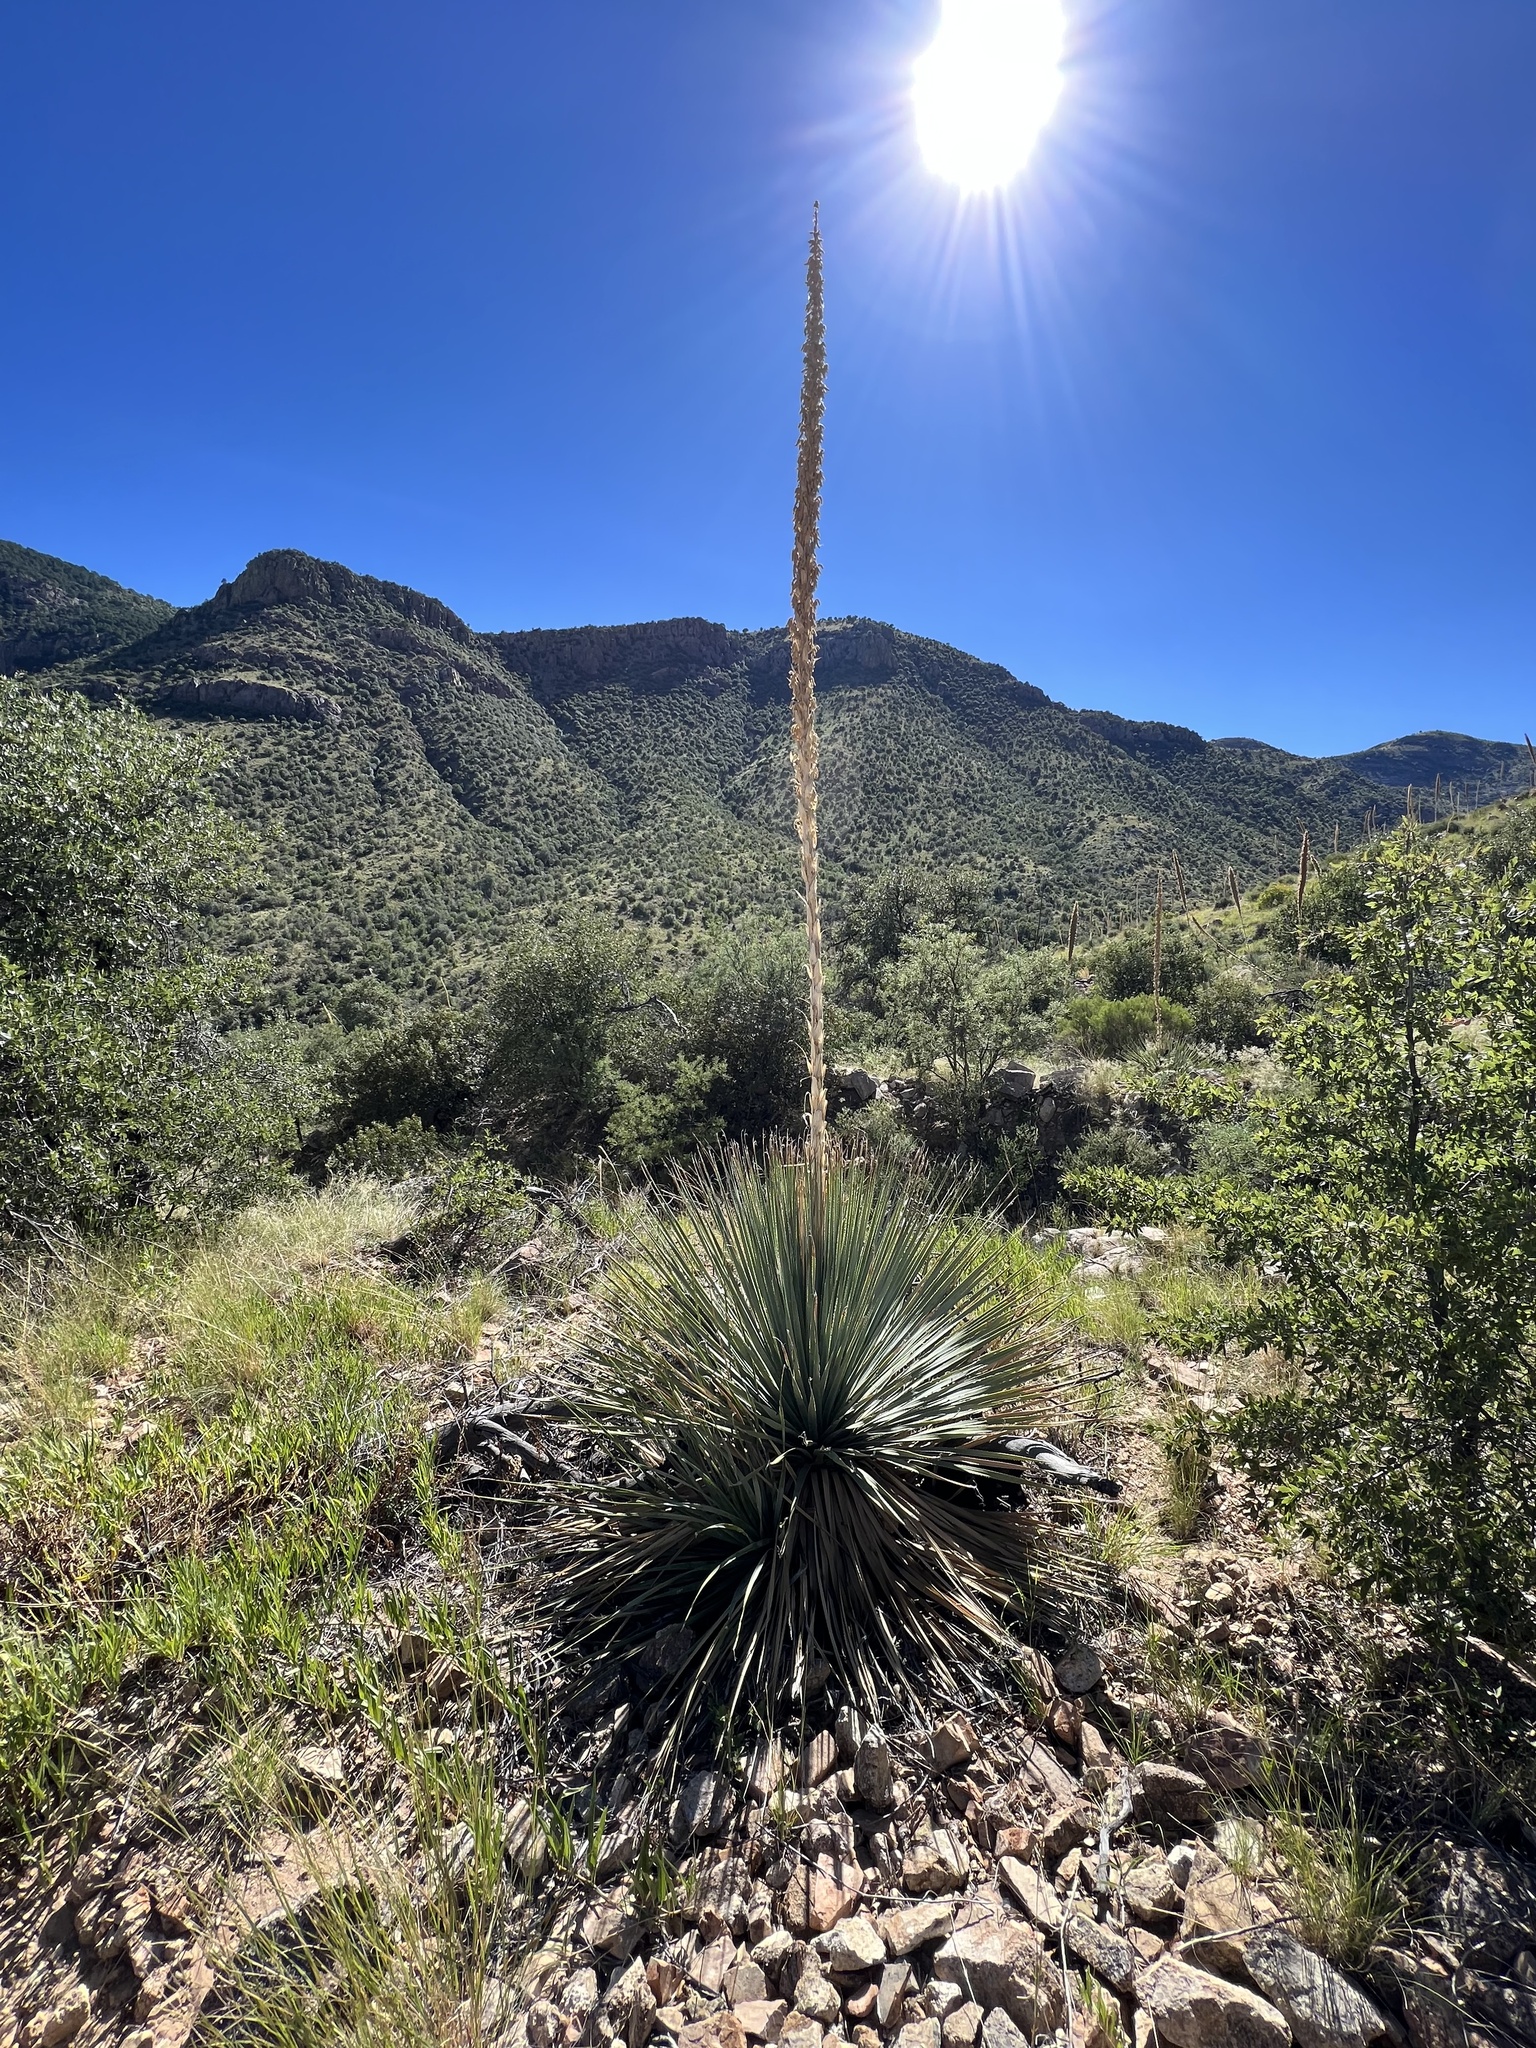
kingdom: Plantae
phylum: Tracheophyta
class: Liliopsida
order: Asparagales
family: Asparagaceae
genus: Dasylirion
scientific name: Dasylirion wheeleri
